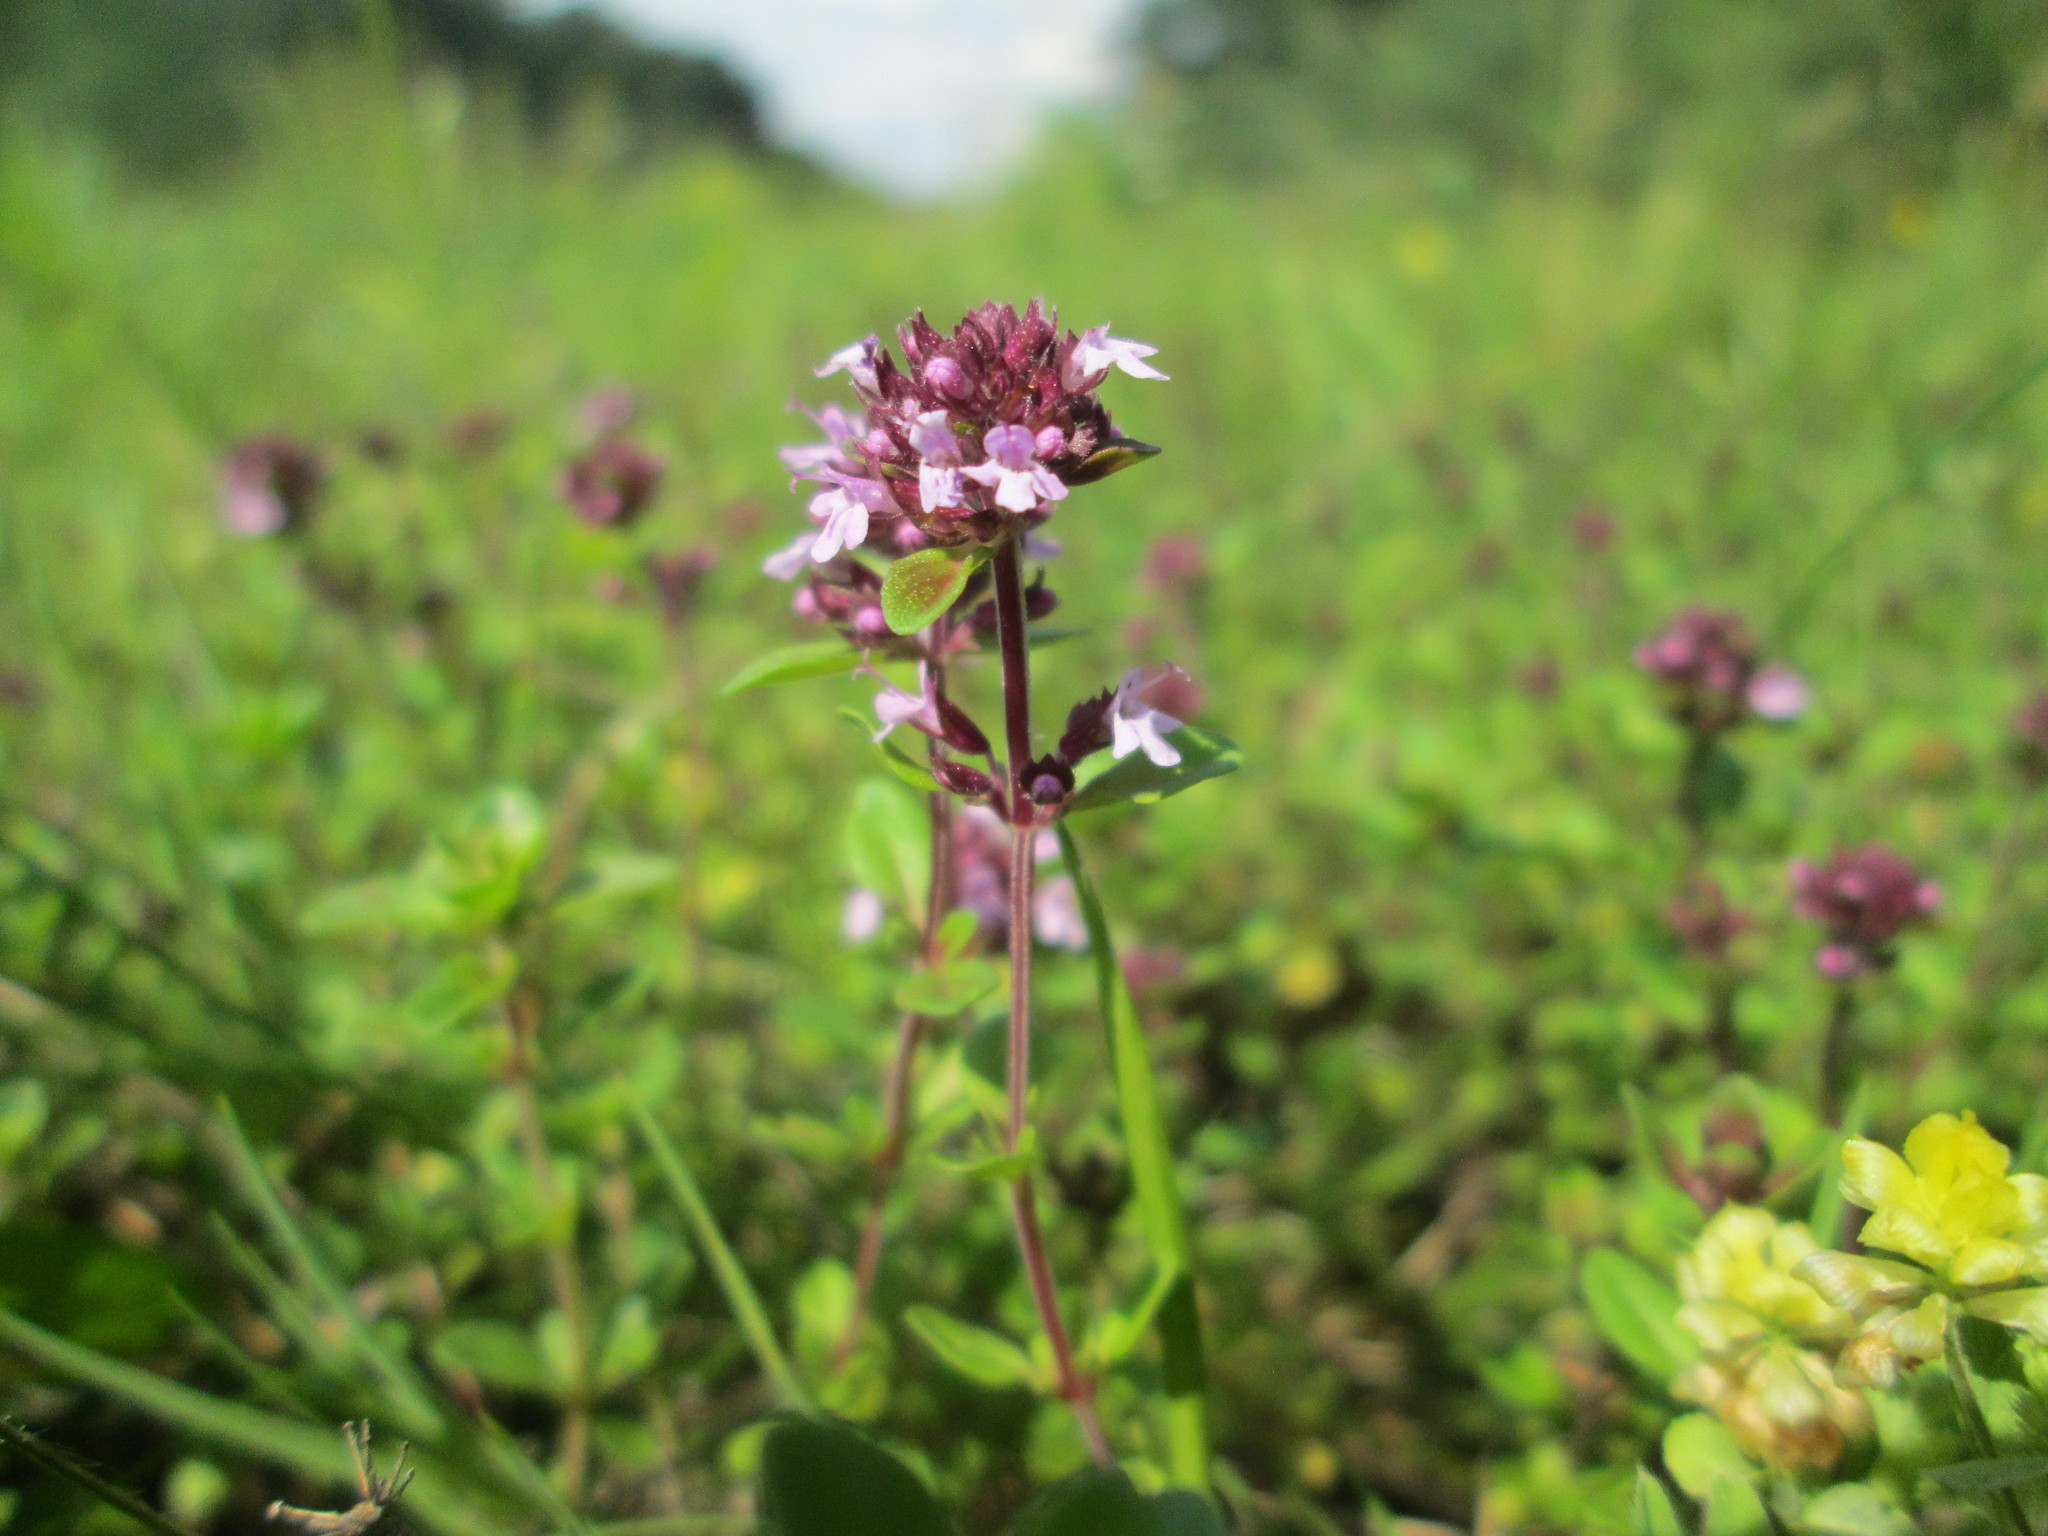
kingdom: Plantae
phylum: Tracheophyta
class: Magnoliopsida
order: Lamiales
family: Lamiaceae
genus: Thymus
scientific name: Thymus pulegioides
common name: Large thyme
